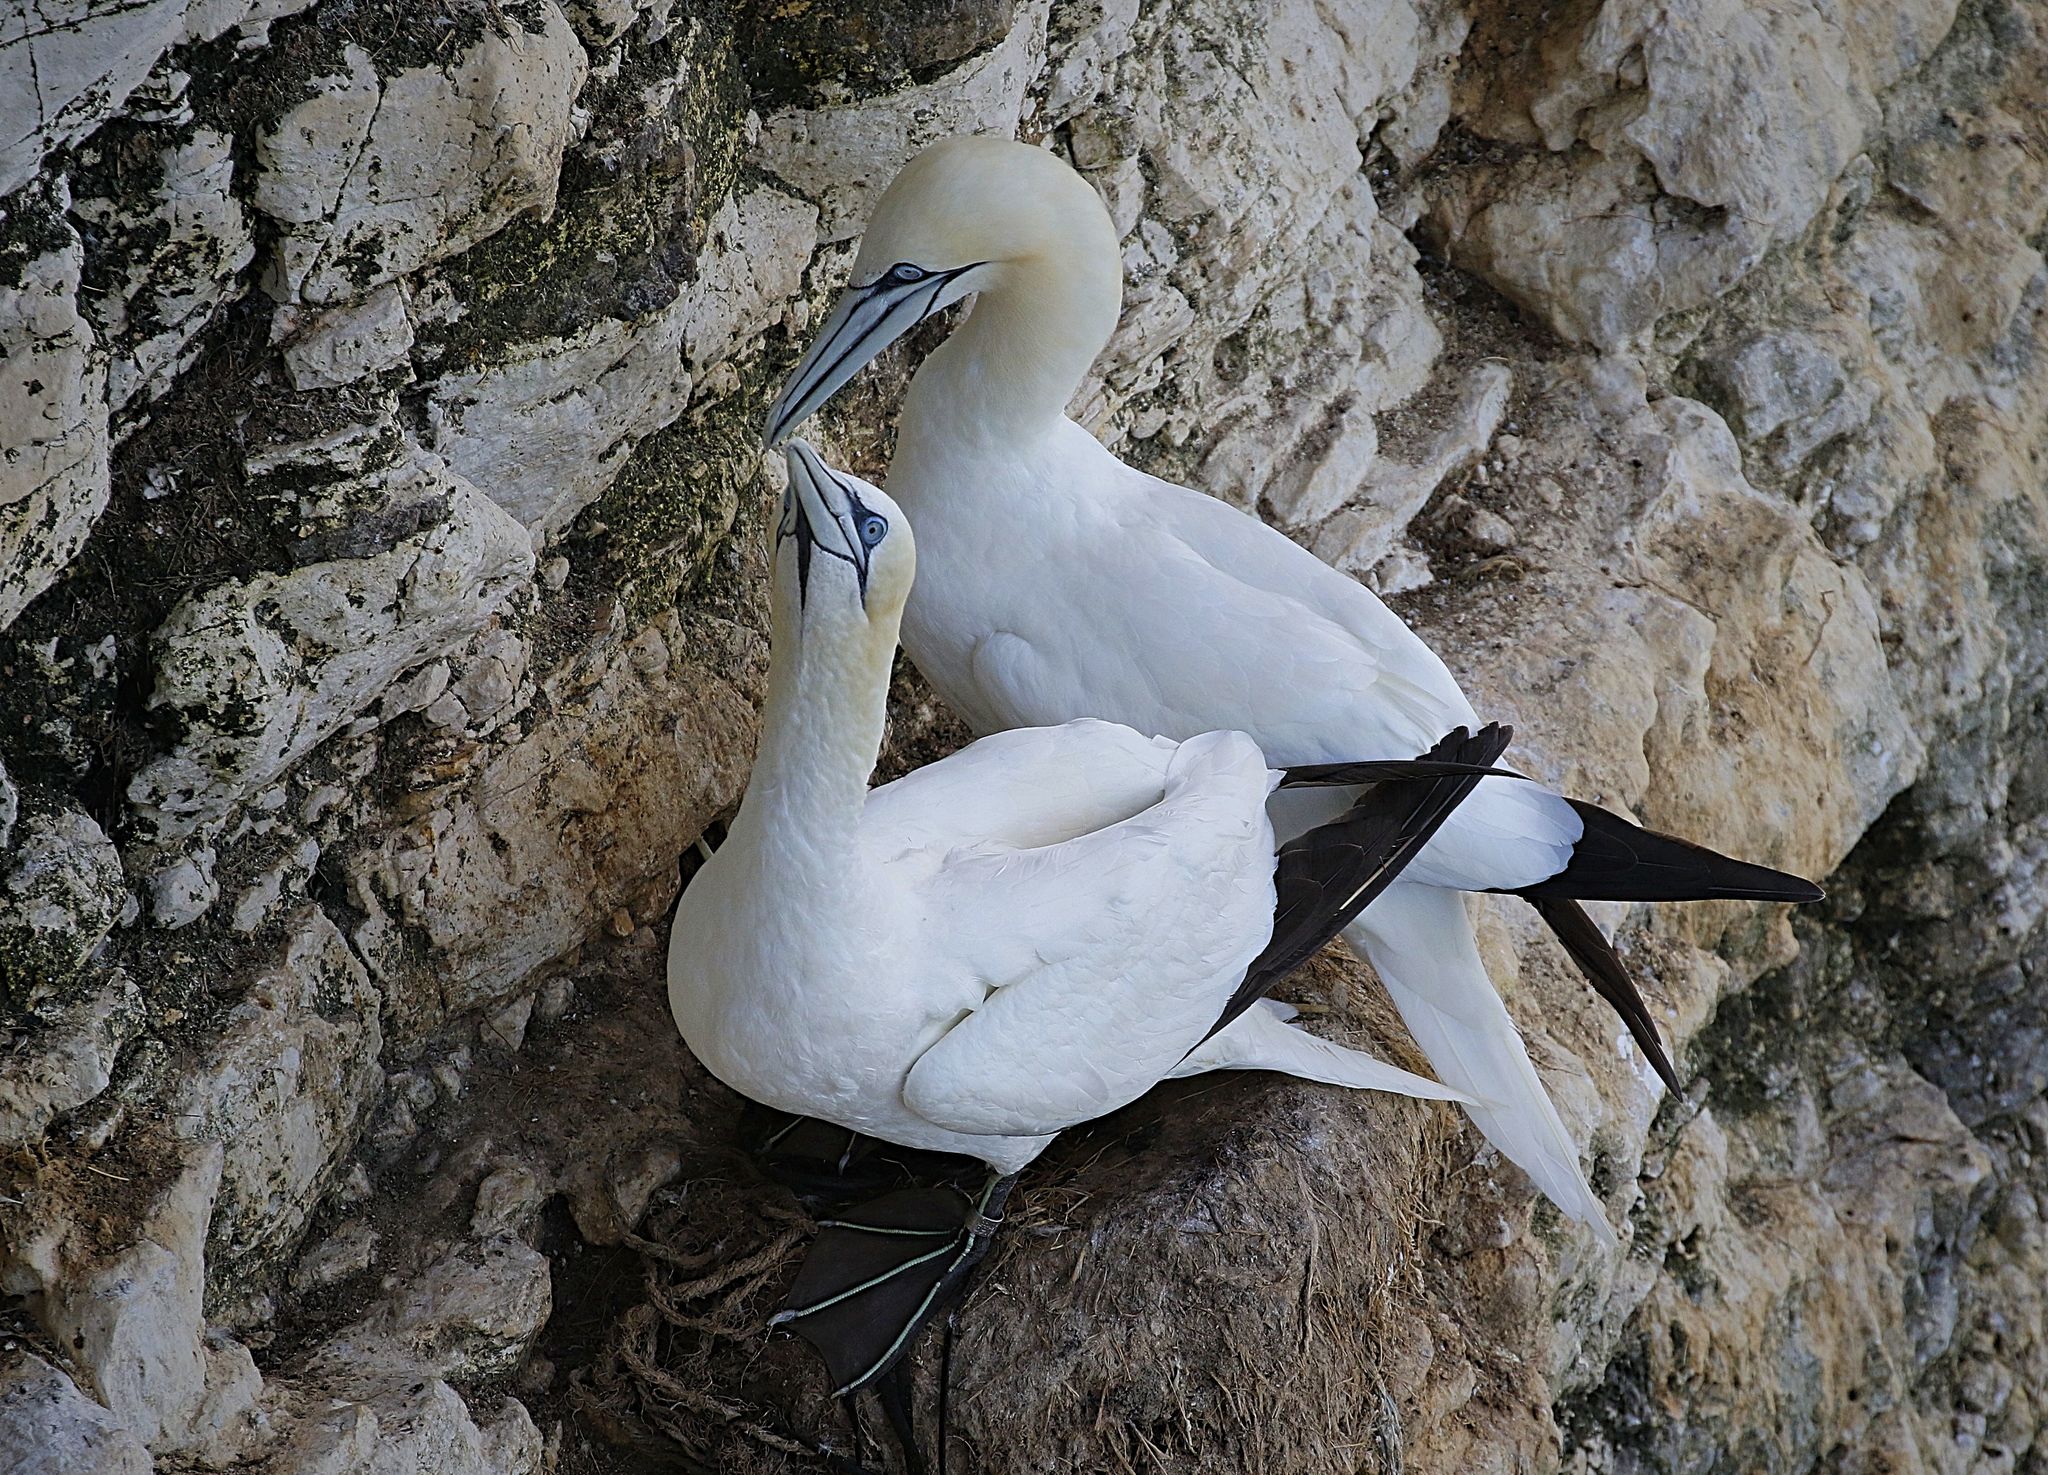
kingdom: Animalia
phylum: Chordata
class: Aves
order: Suliformes
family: Sulidae
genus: Morus
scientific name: Morus bassanus
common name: Northern gannet
